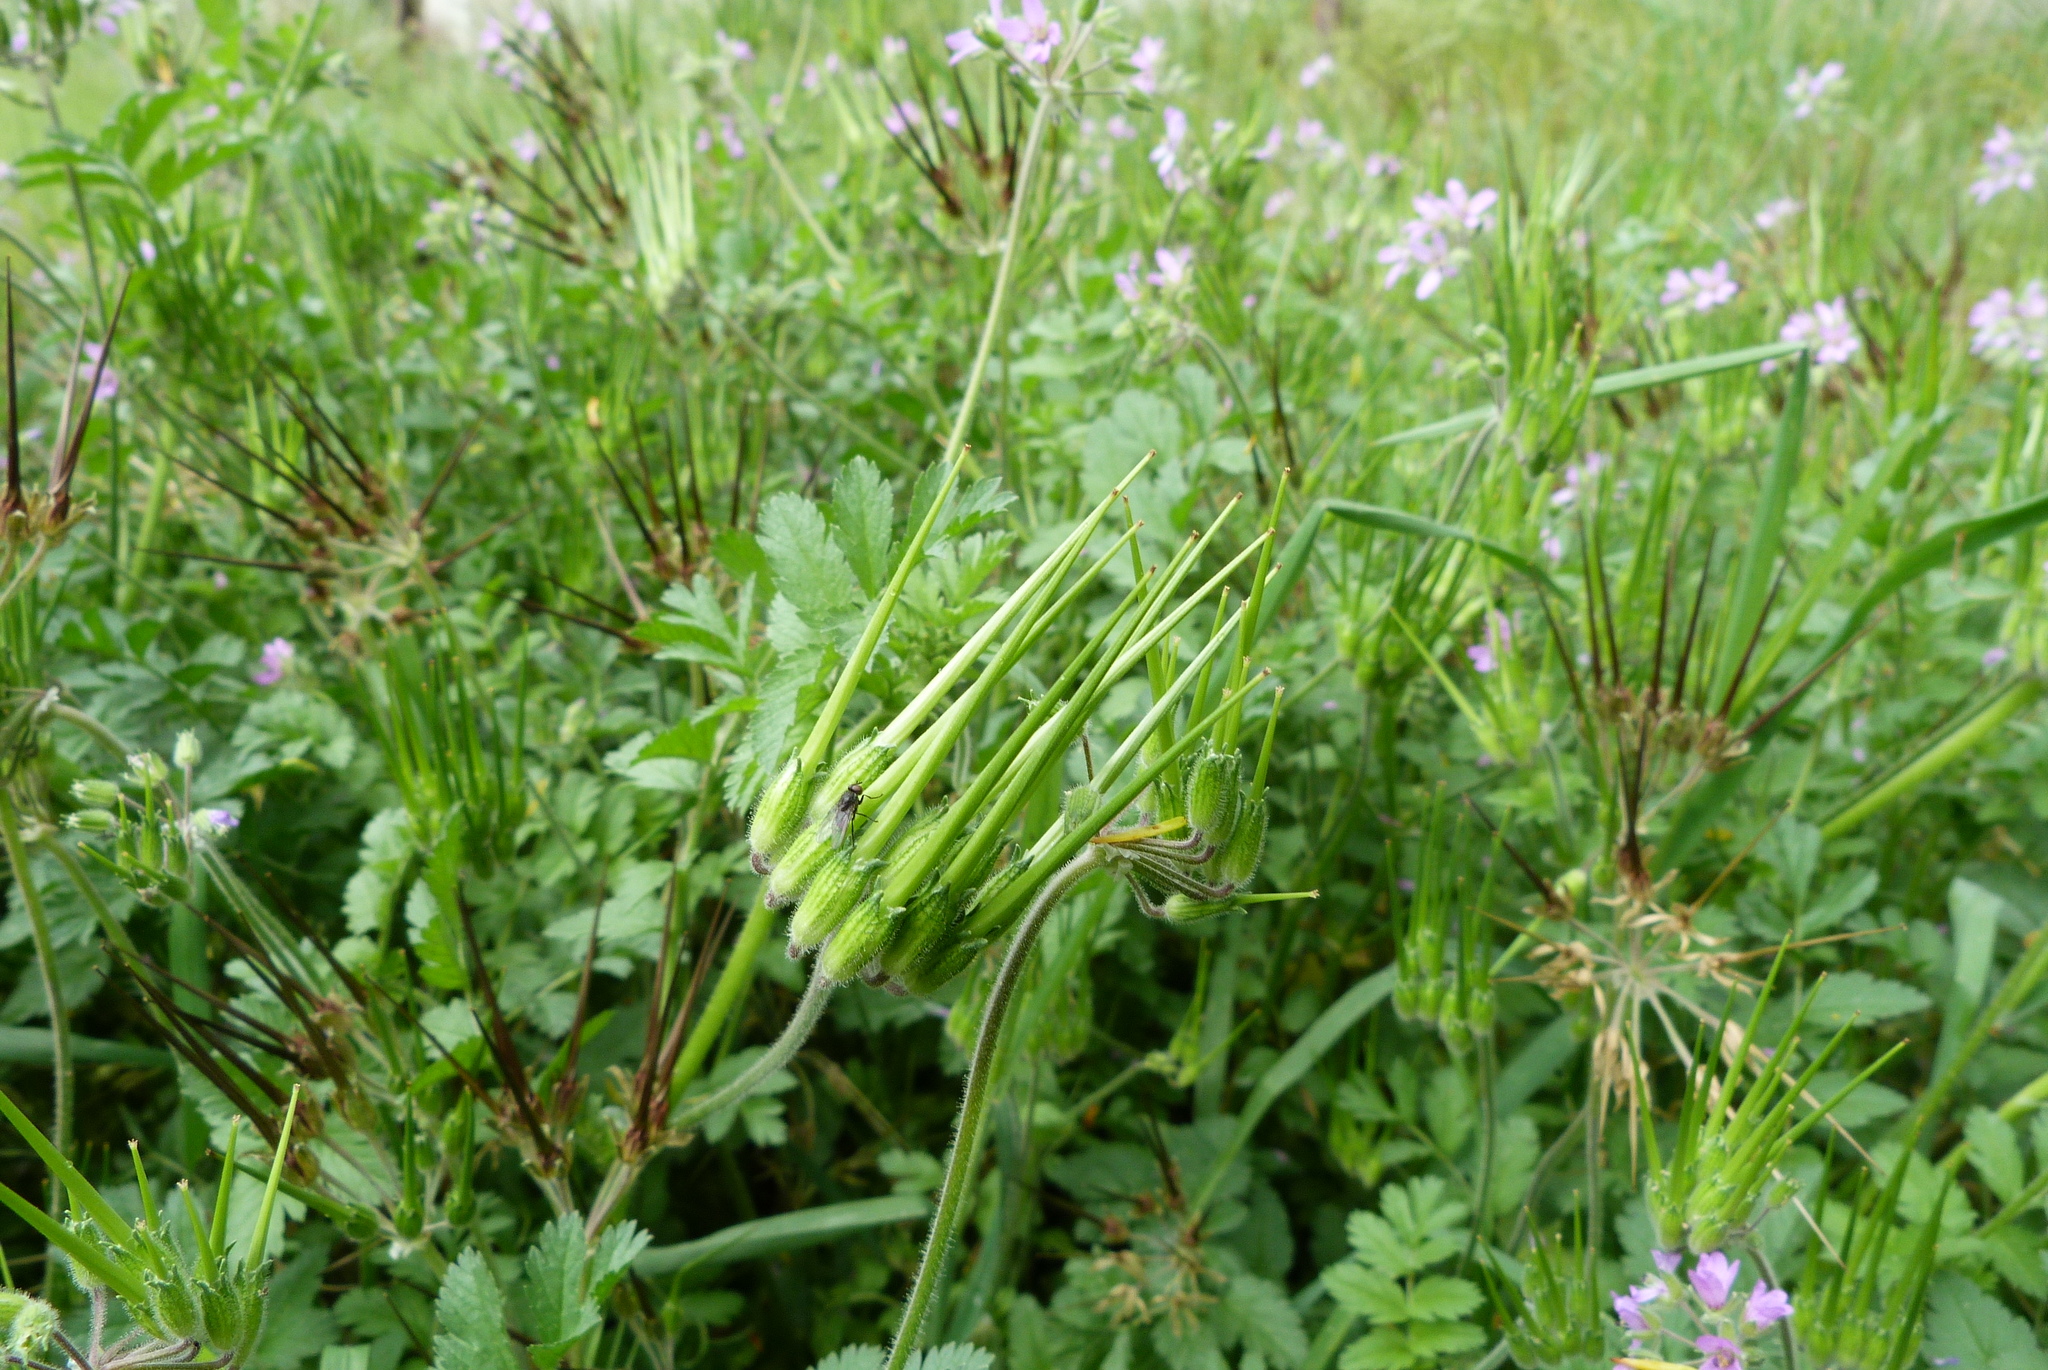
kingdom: Plantae
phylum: Tracheophyta
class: Magnoliopsida
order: Geraniales
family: Geraniaceae
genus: Erodium
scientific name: Erodium moschatum
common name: Musk stork's-bill
